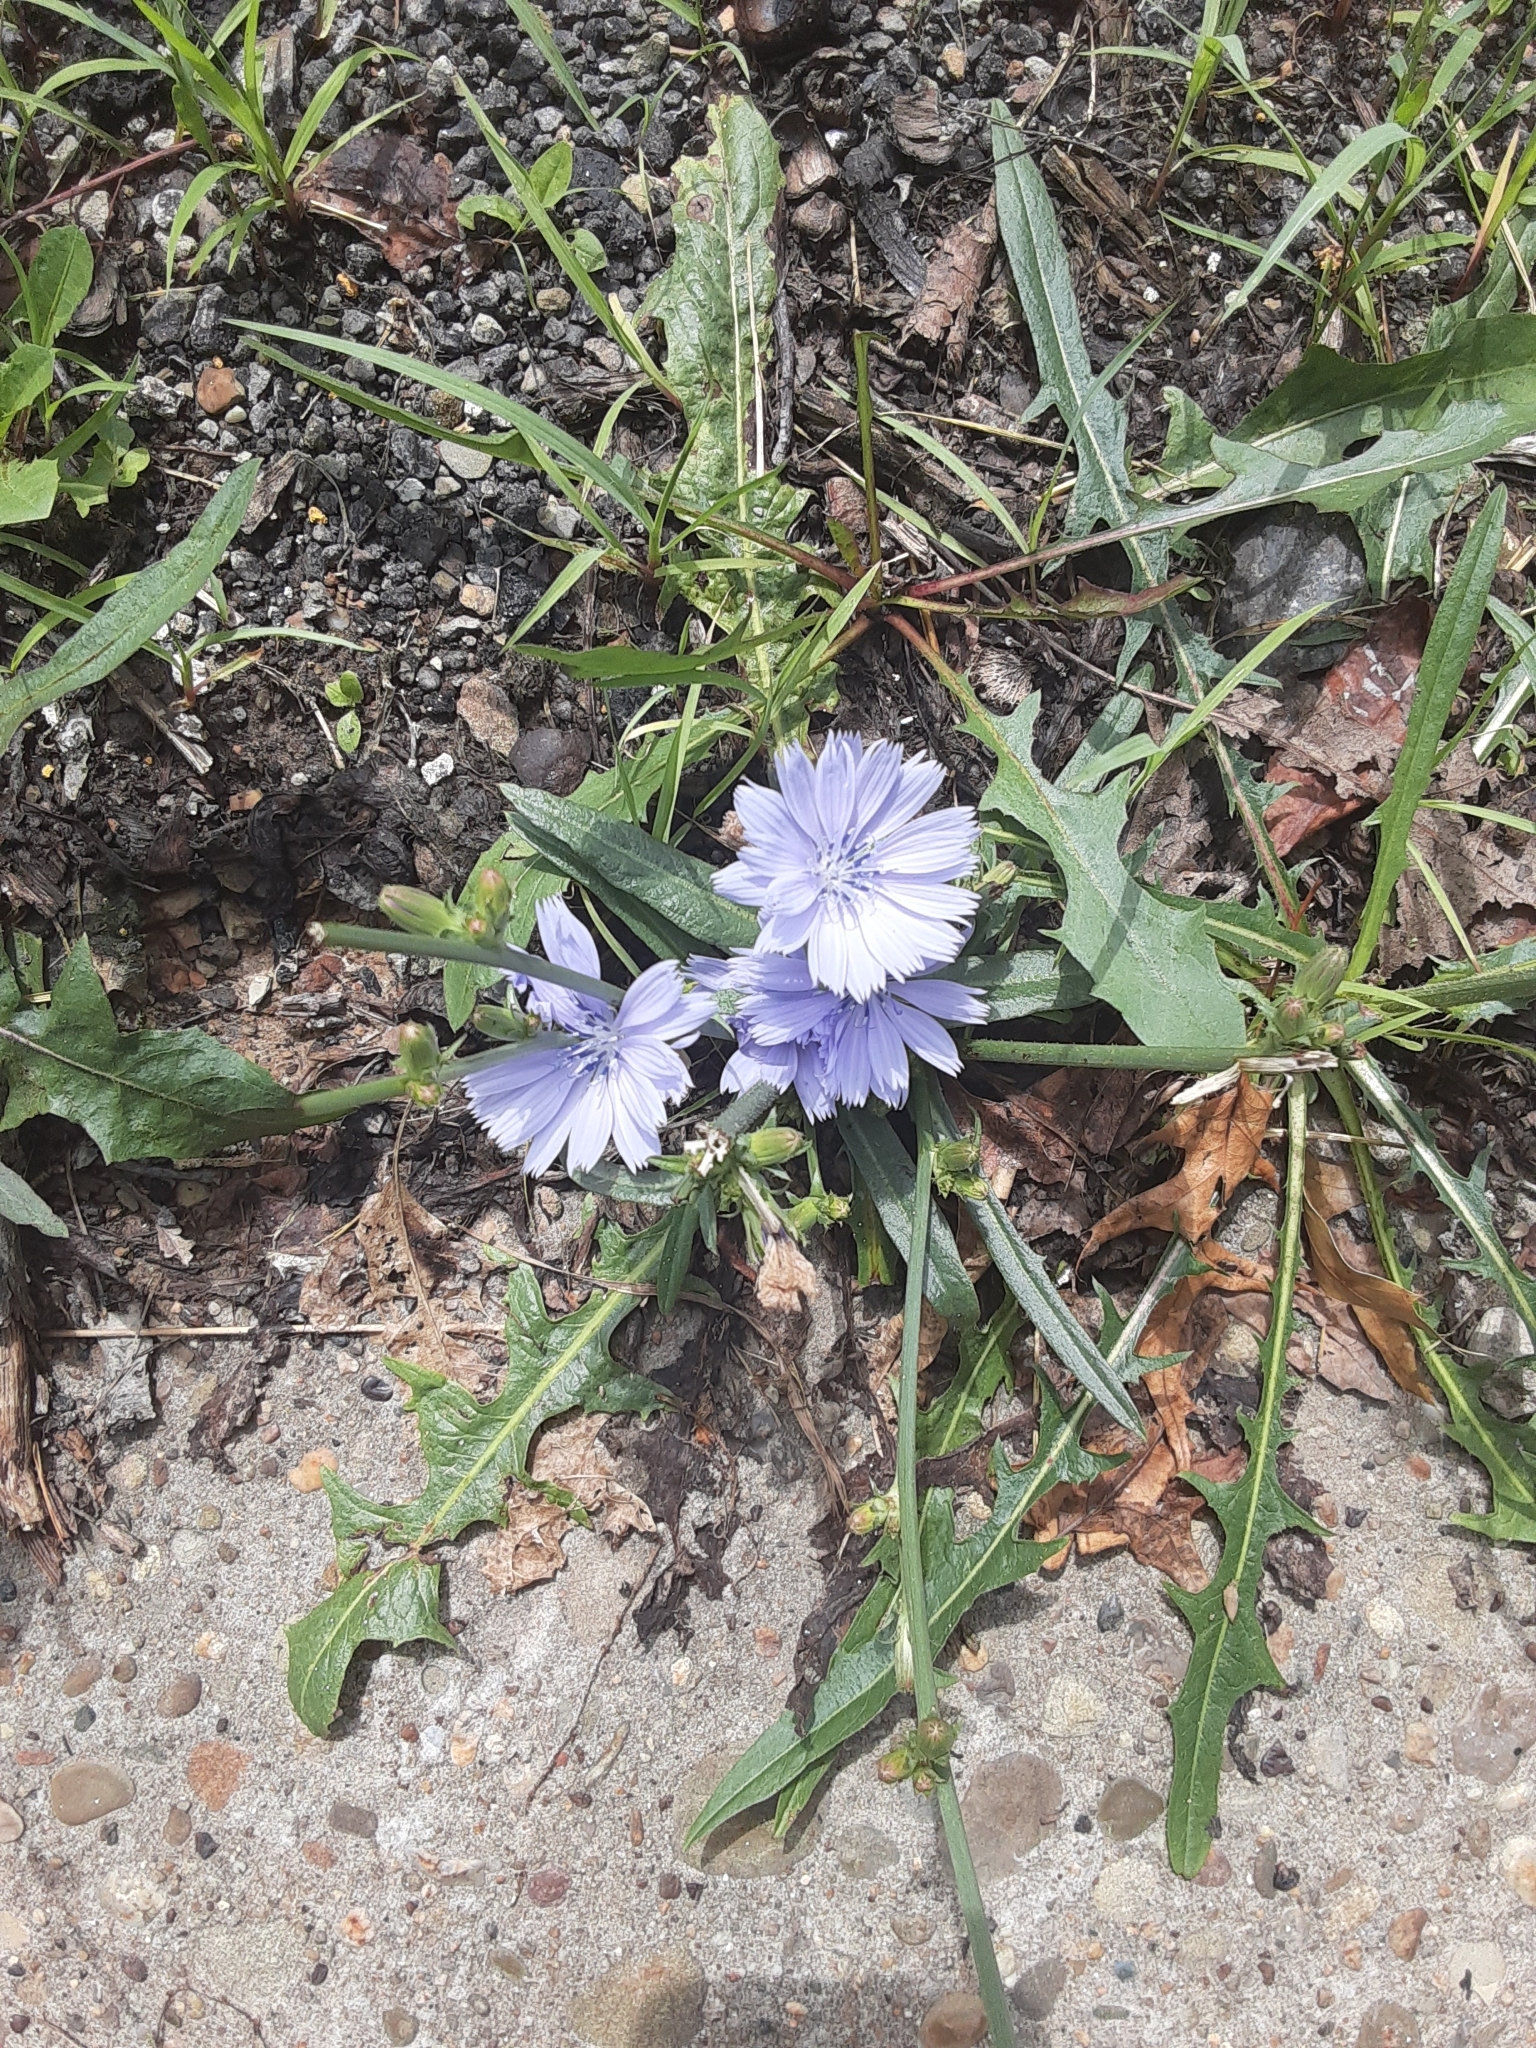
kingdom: Plantae
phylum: Tracheophyta
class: Magnoliopsida
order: Asterales
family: Asteraceae
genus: Cichorium
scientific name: Cichorium intybus
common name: Chicory
